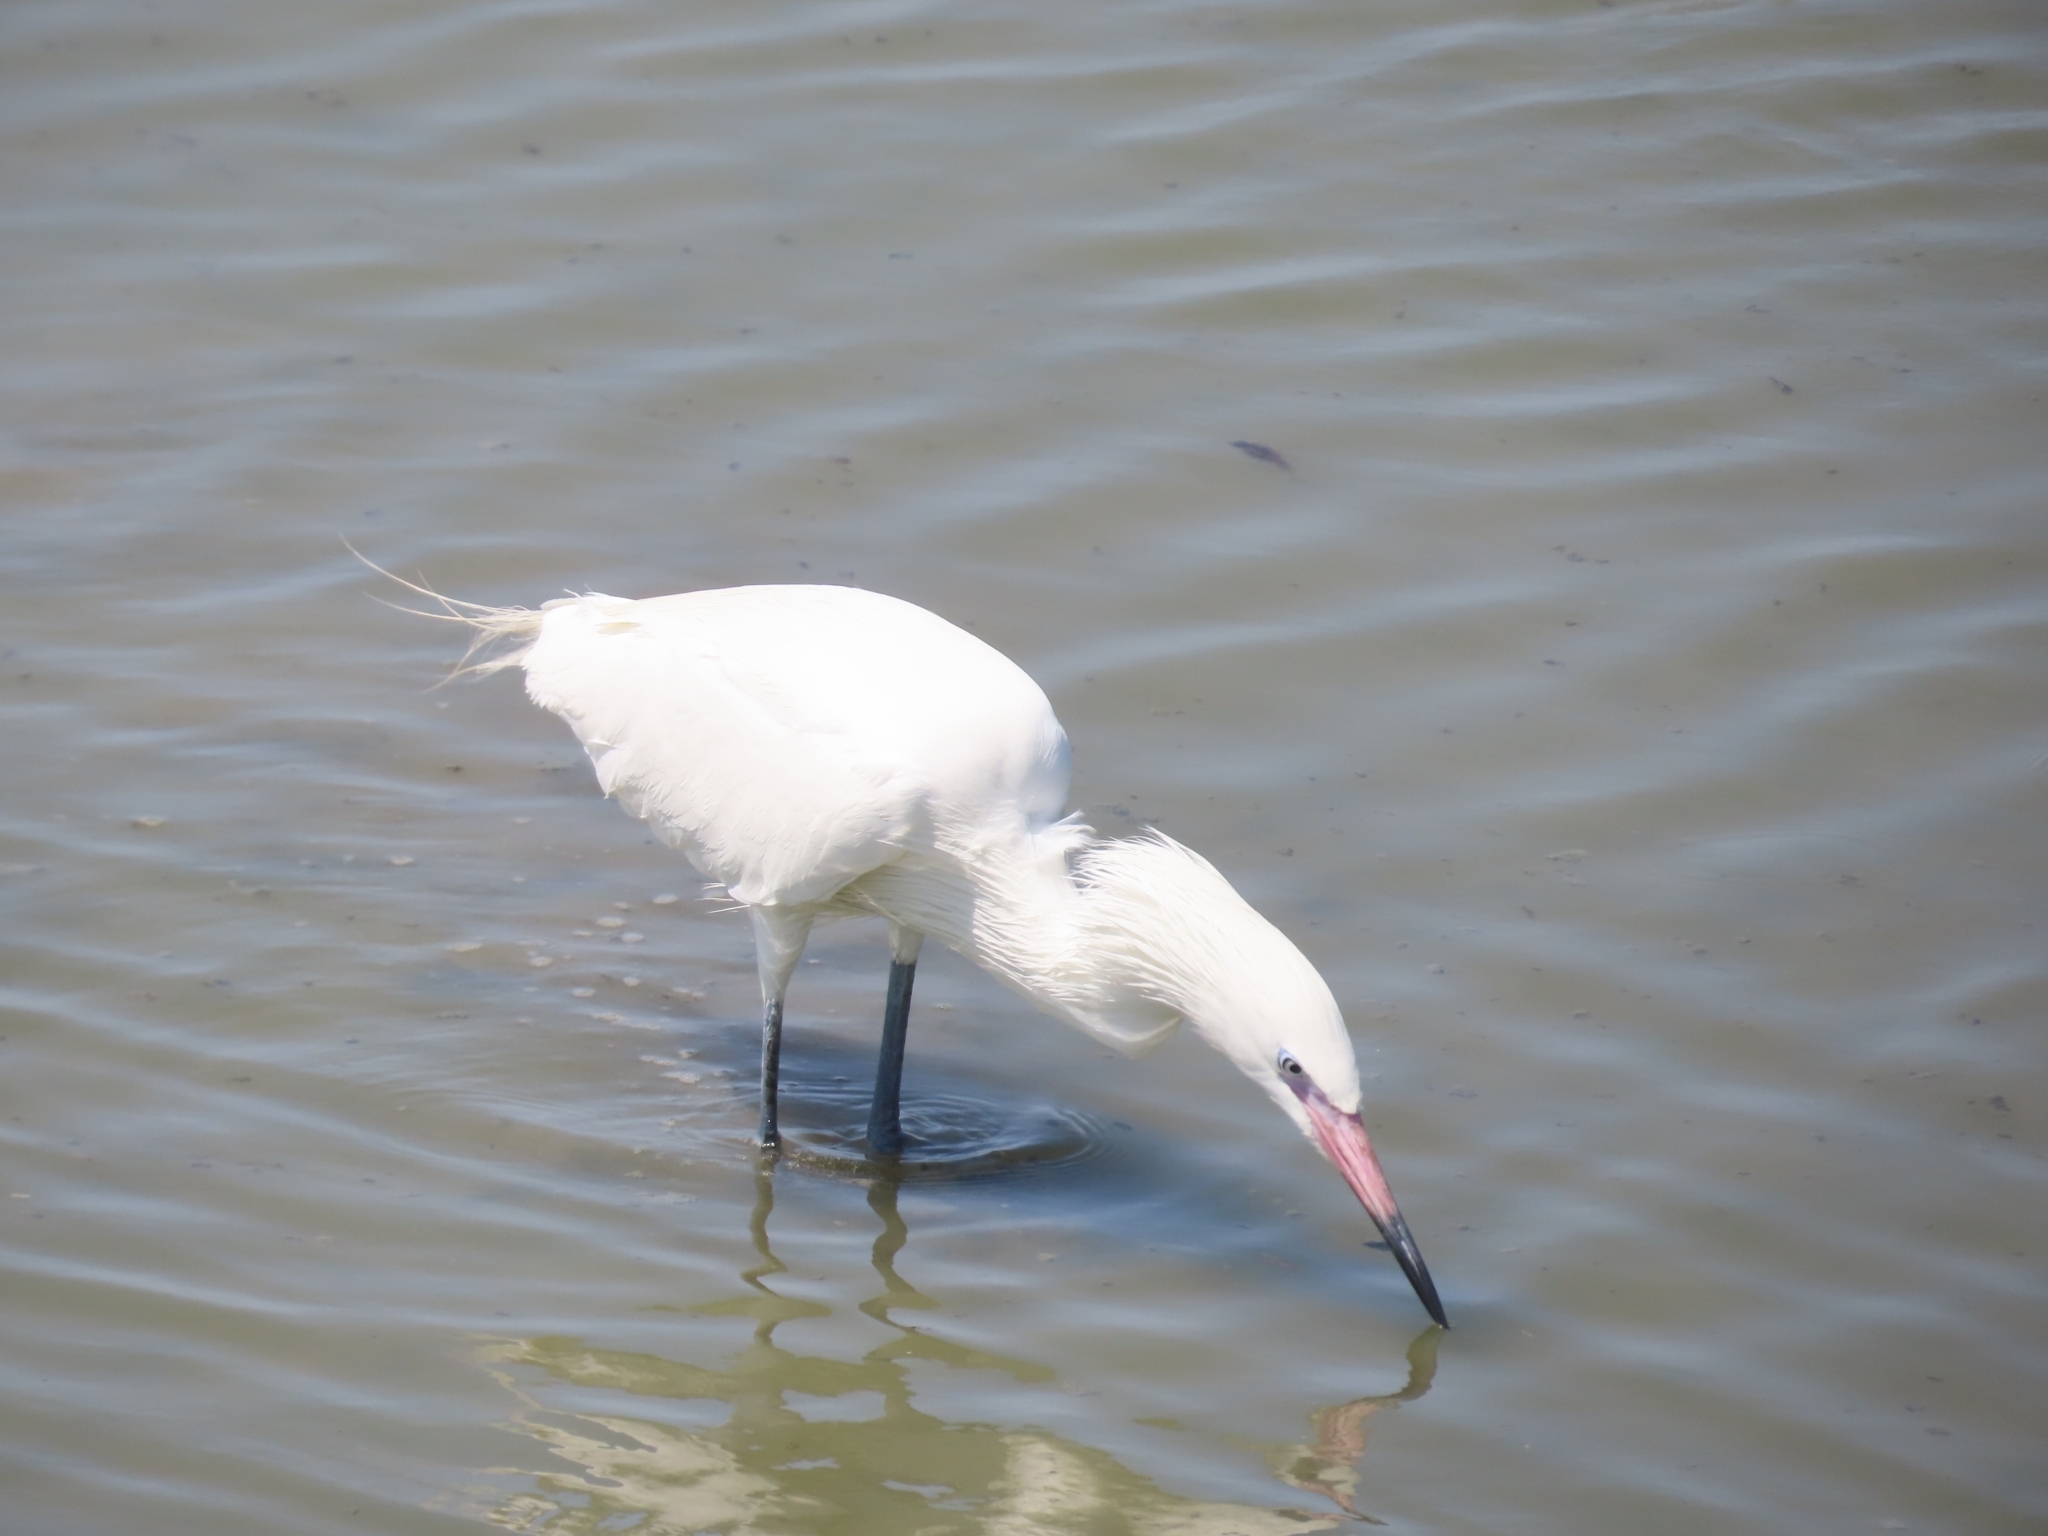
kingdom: Animalia
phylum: Chordata
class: Aves
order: Pelecaniformes
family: Ardeidae
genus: Egretta
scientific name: Egretta rufescens
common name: Reddish egret
